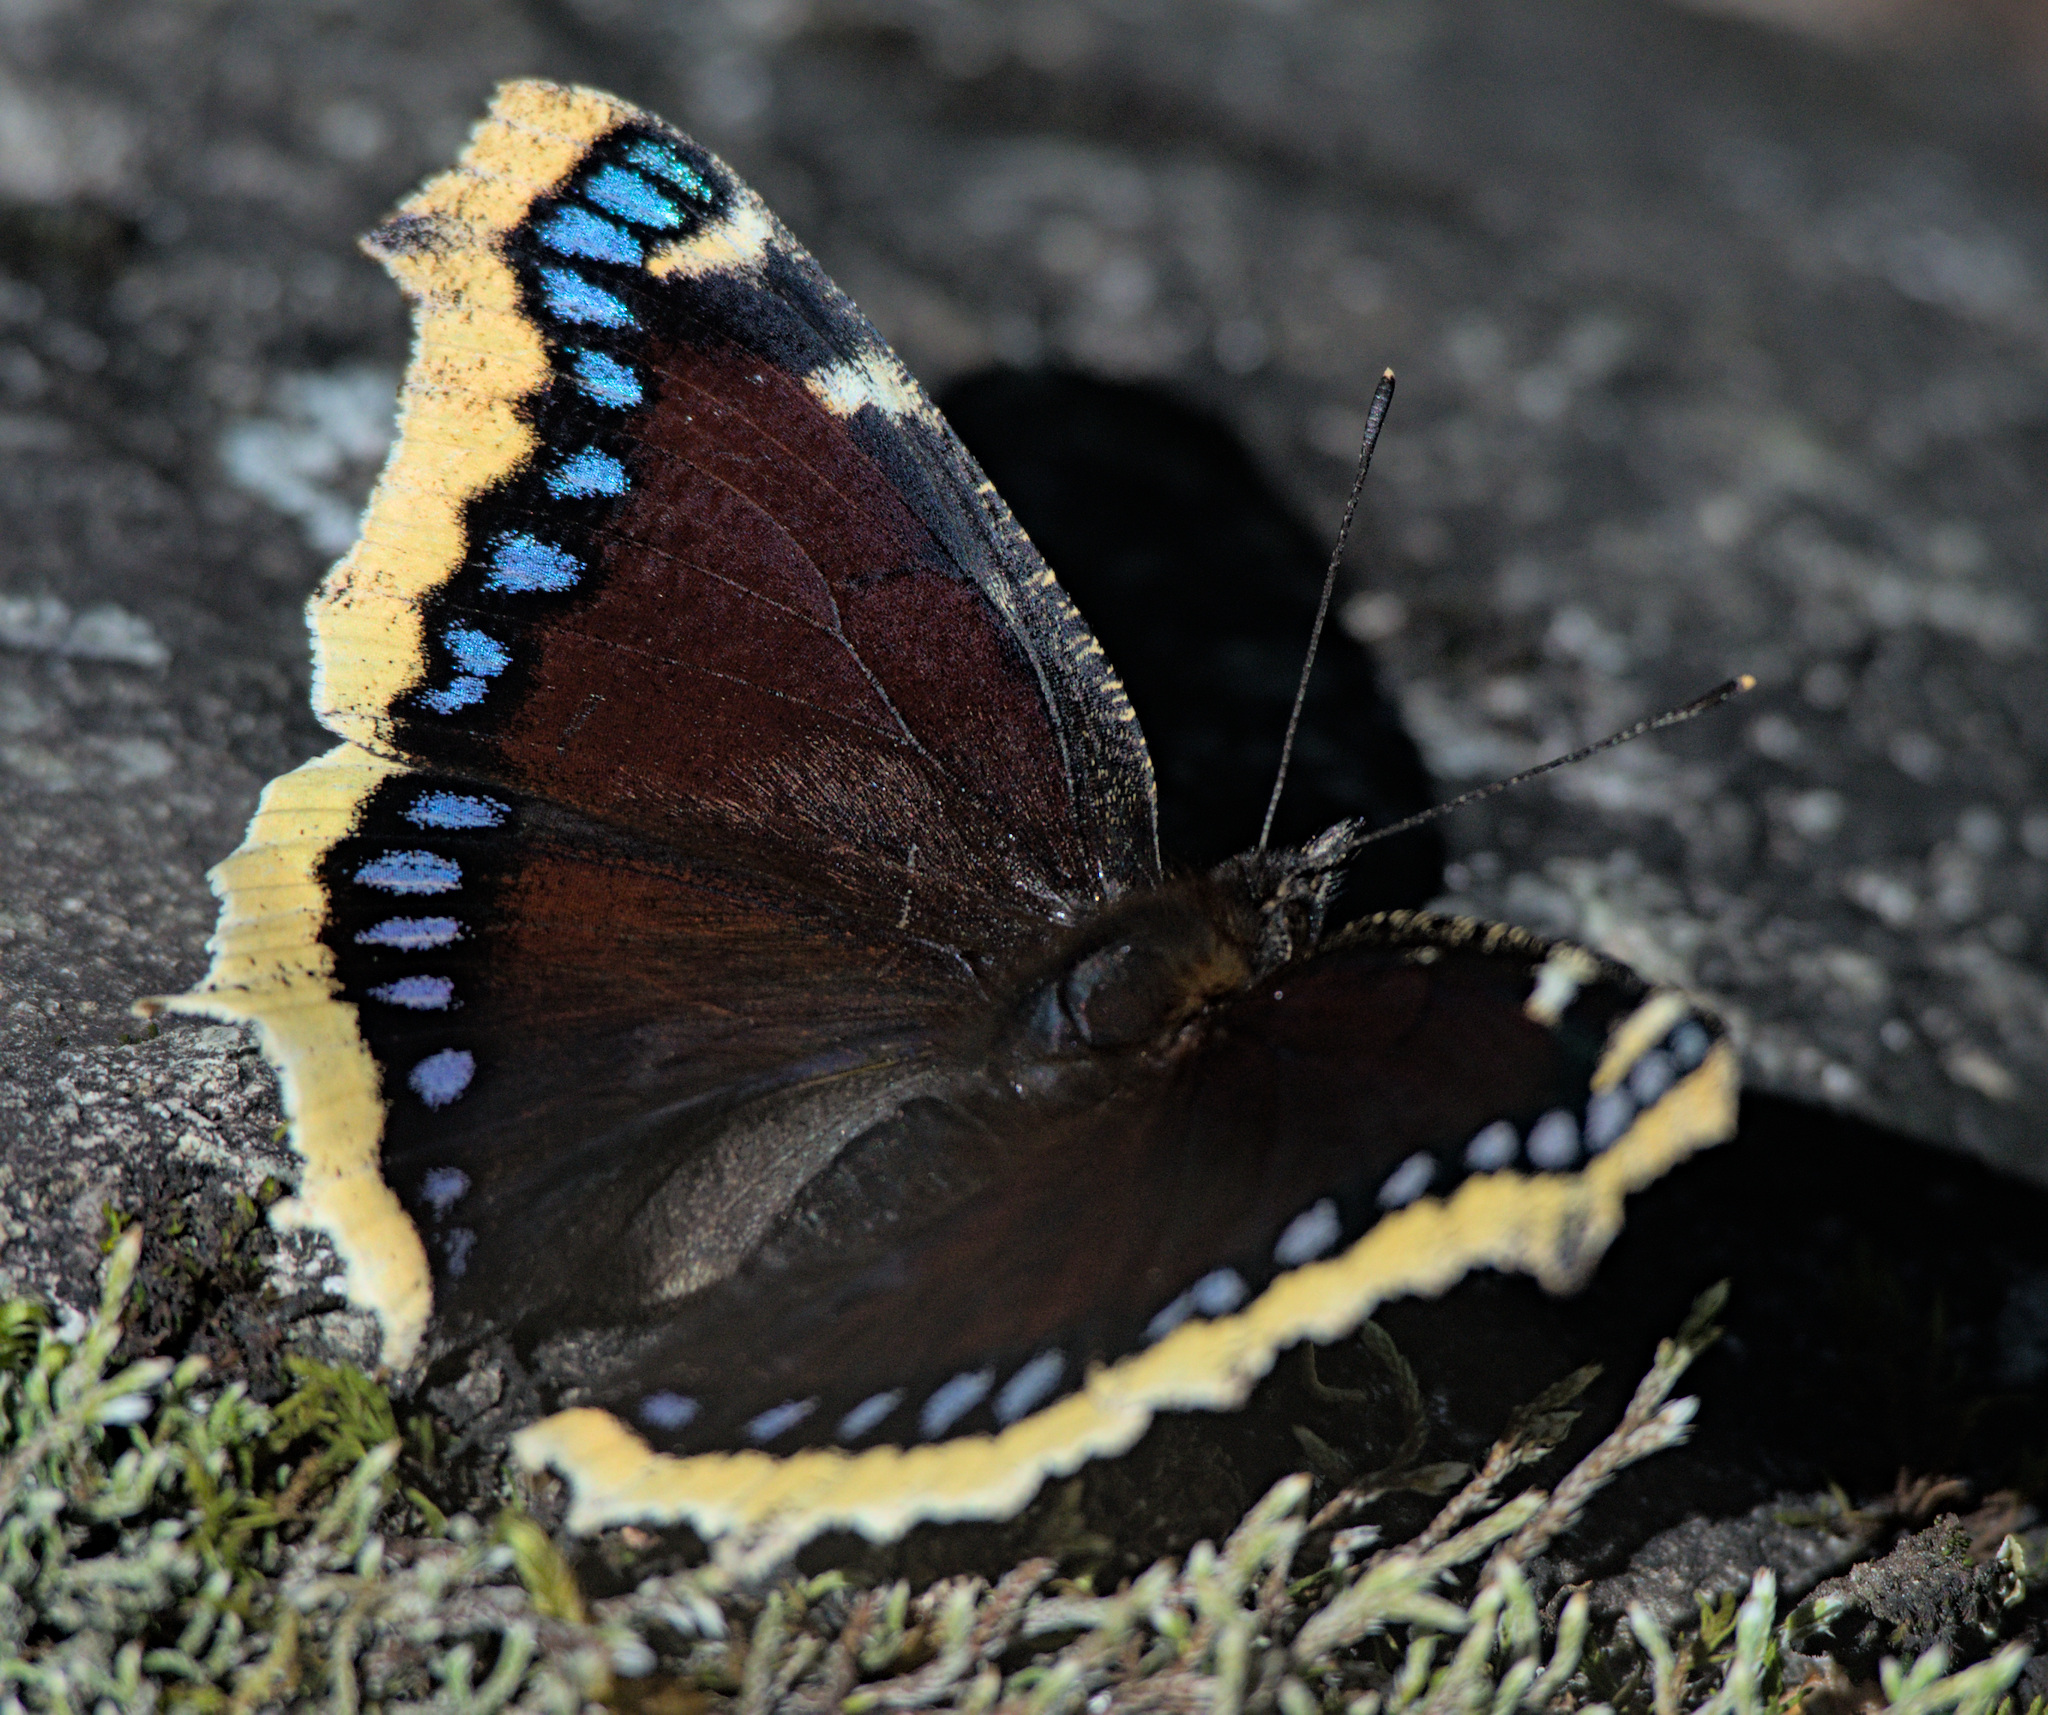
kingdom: Animalia
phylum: Arthropoda
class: Insecta
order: Lepidoptera
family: Nymphalidae
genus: Nymphalis
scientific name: Nymphalis antiopa
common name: Camberwell beauty
